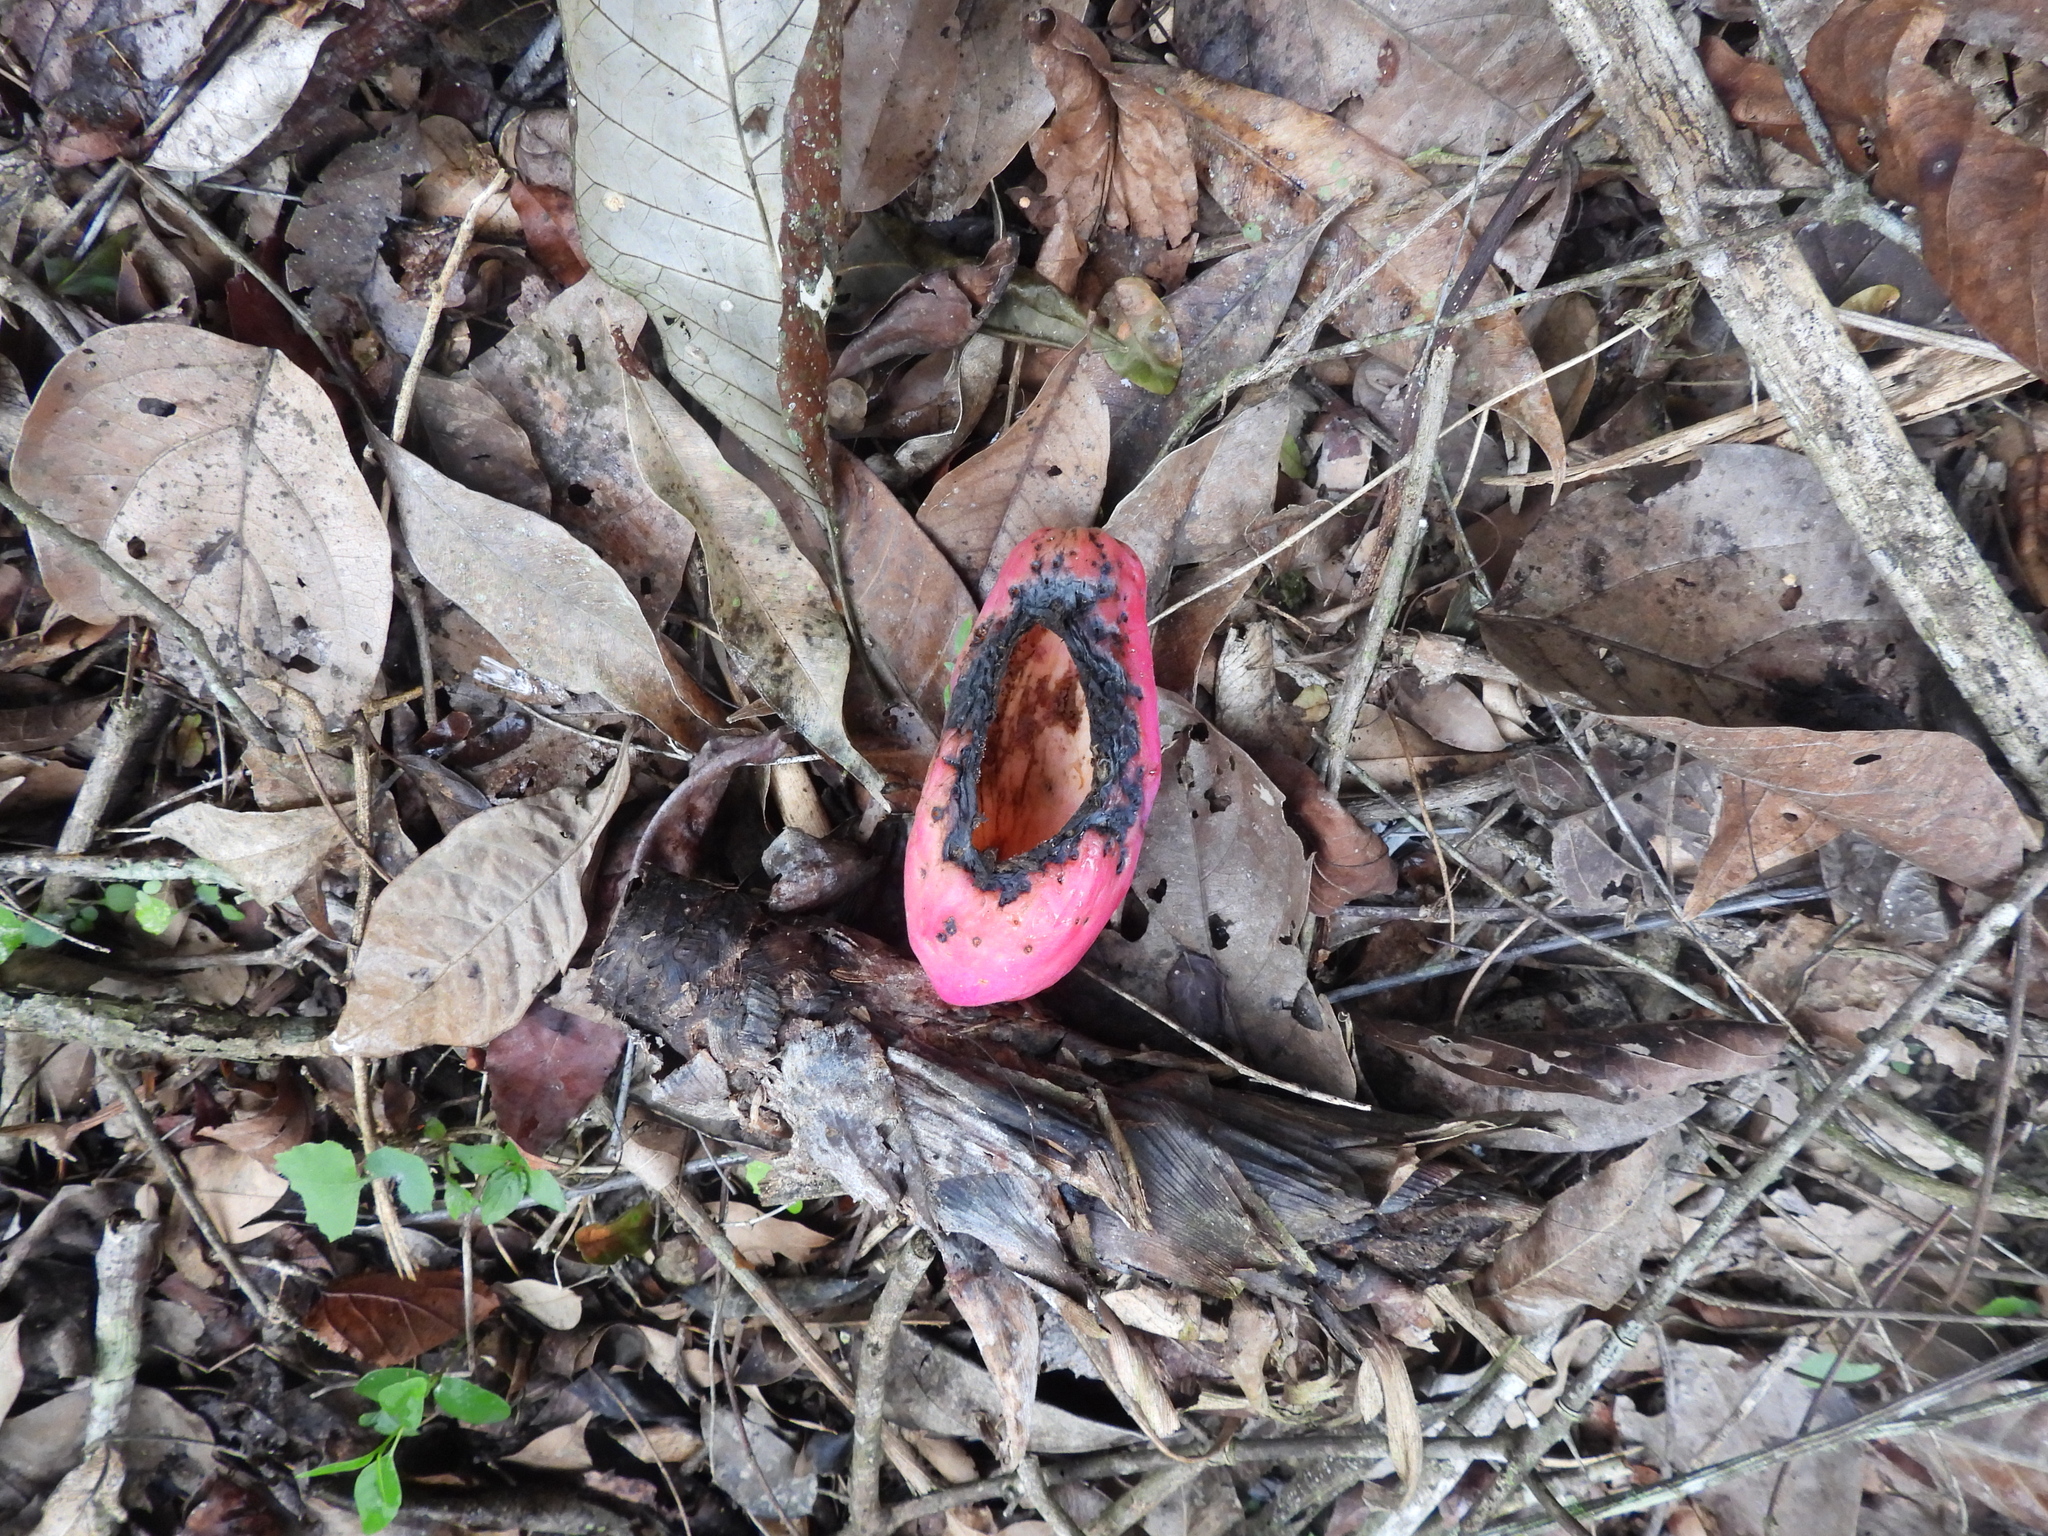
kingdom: Plantae
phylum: Tracheophyta
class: Magnoliopsida
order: Caryophyllales
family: Cactaceae
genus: Cereus
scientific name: Cereus hexagonus
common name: Lady of the night cactus
